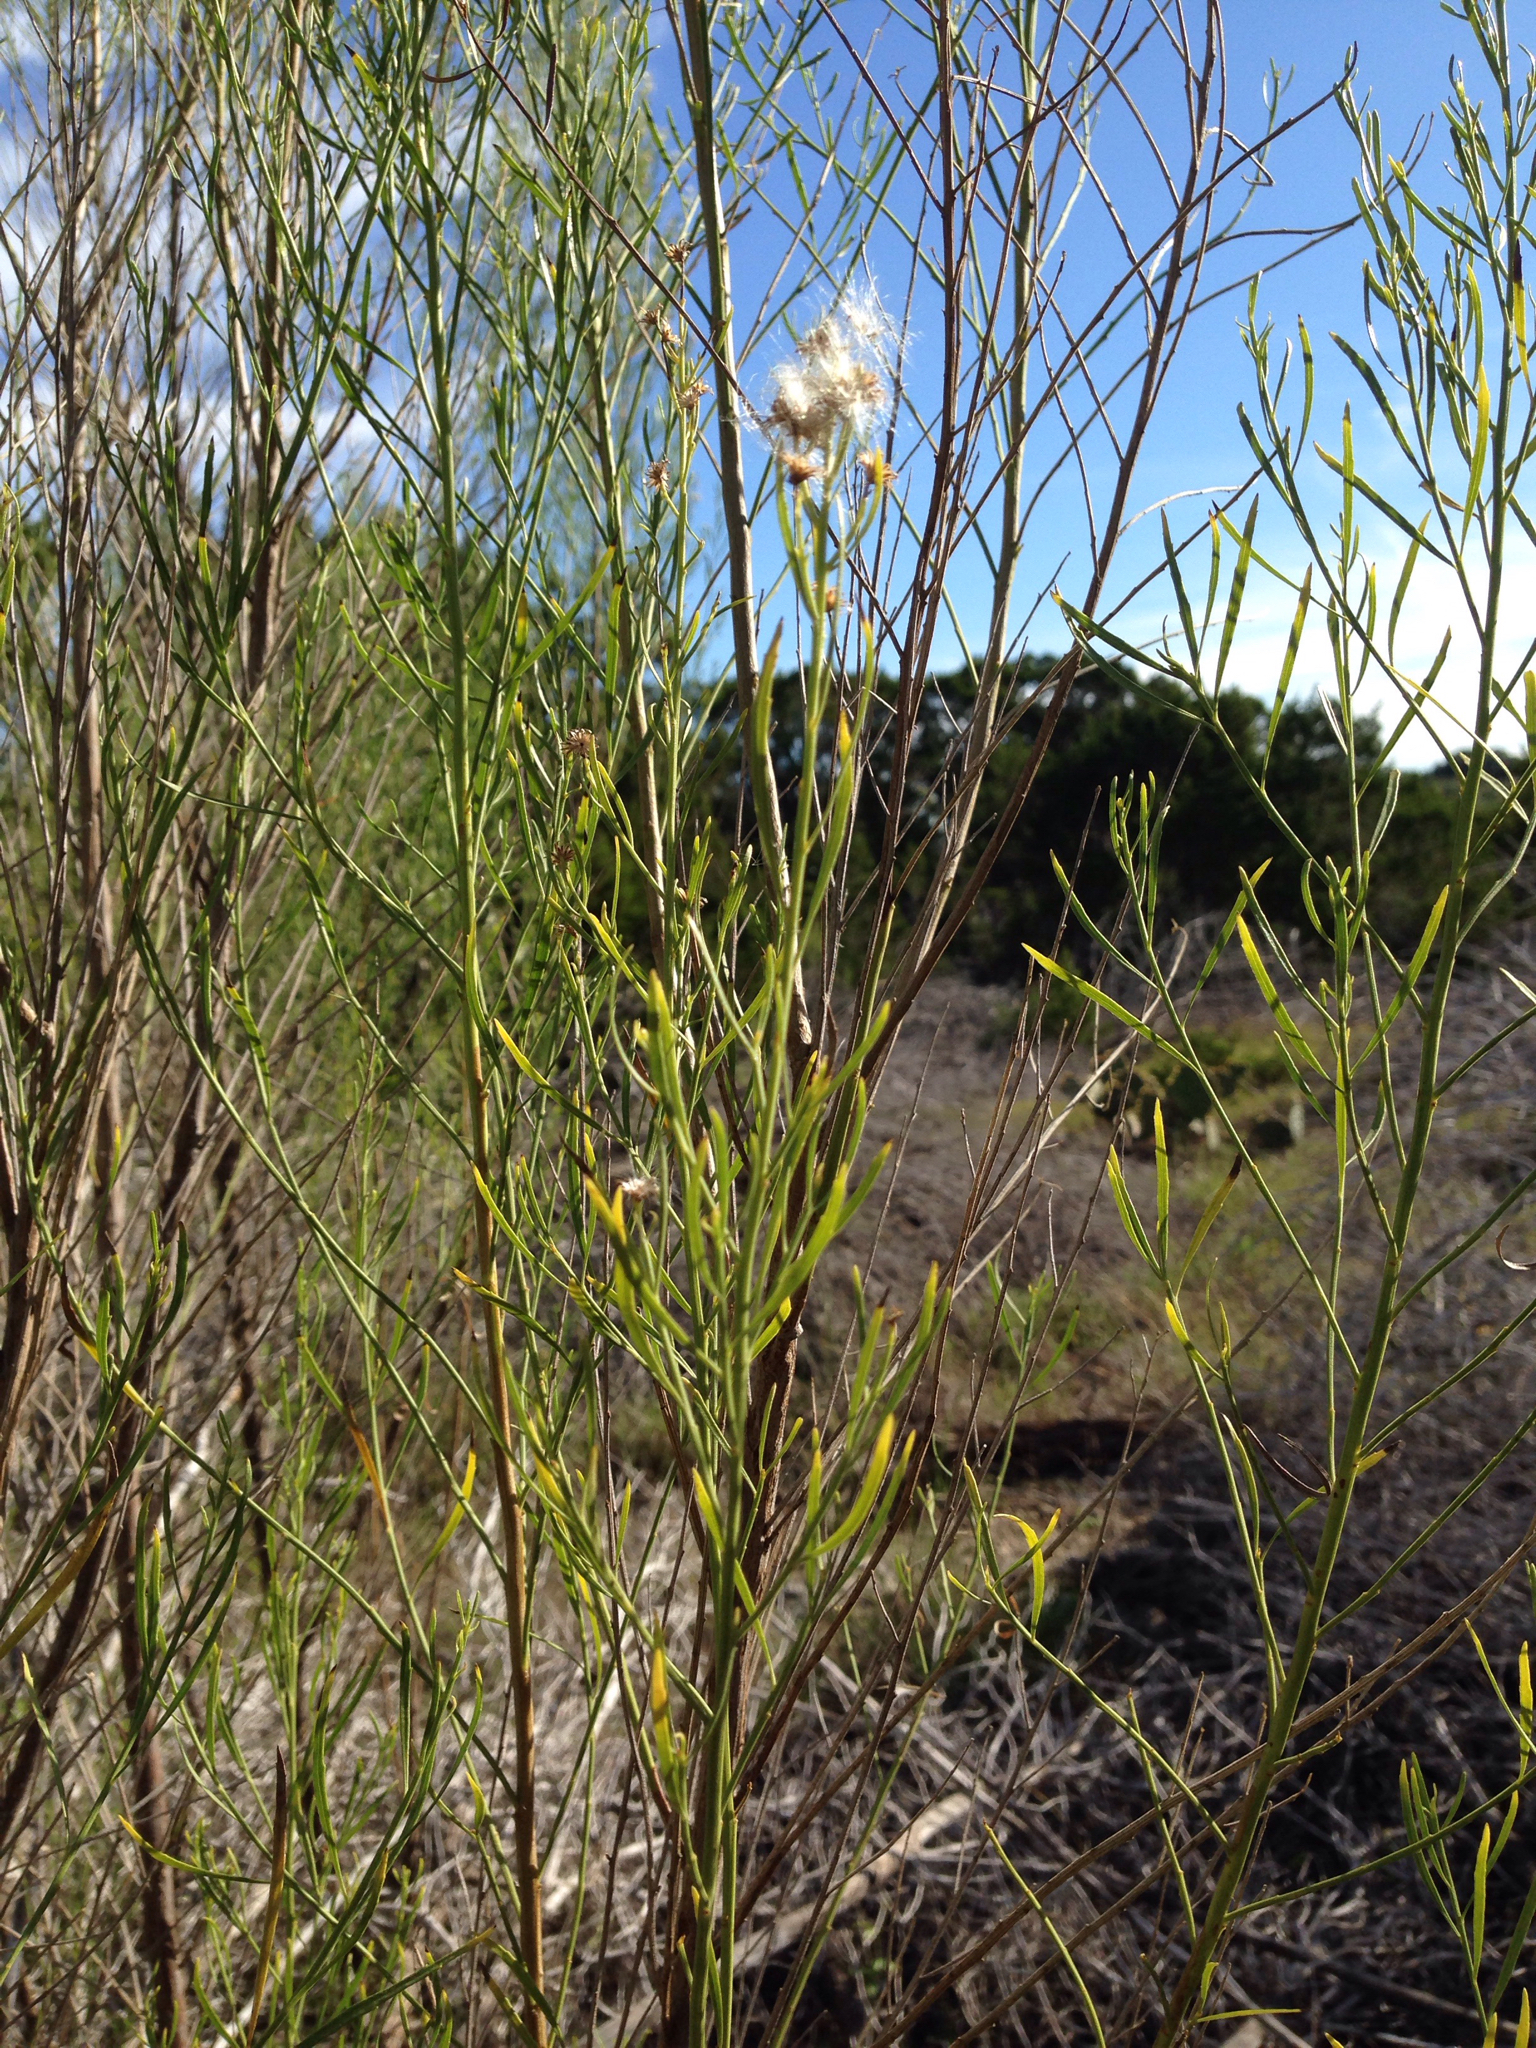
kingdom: Plantae
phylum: Tracheophyta
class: Magnoliopsida
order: Asterales
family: Asteraceae
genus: Baccharis
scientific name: Baccharis neglecta
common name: Roosevelt-weed
